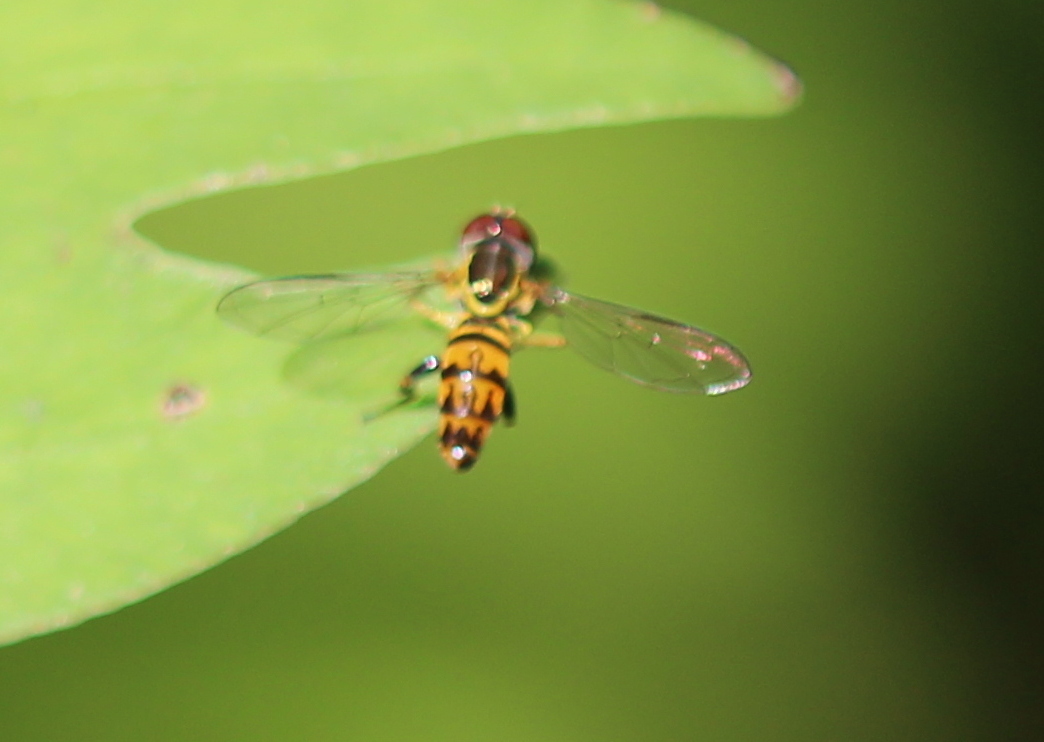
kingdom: Animalia
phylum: Arthropoda
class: Insecta
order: Diptera
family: Syrphidae
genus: Toxomerus
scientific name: Toxomerus geminatus
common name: Eastern calligrapher
